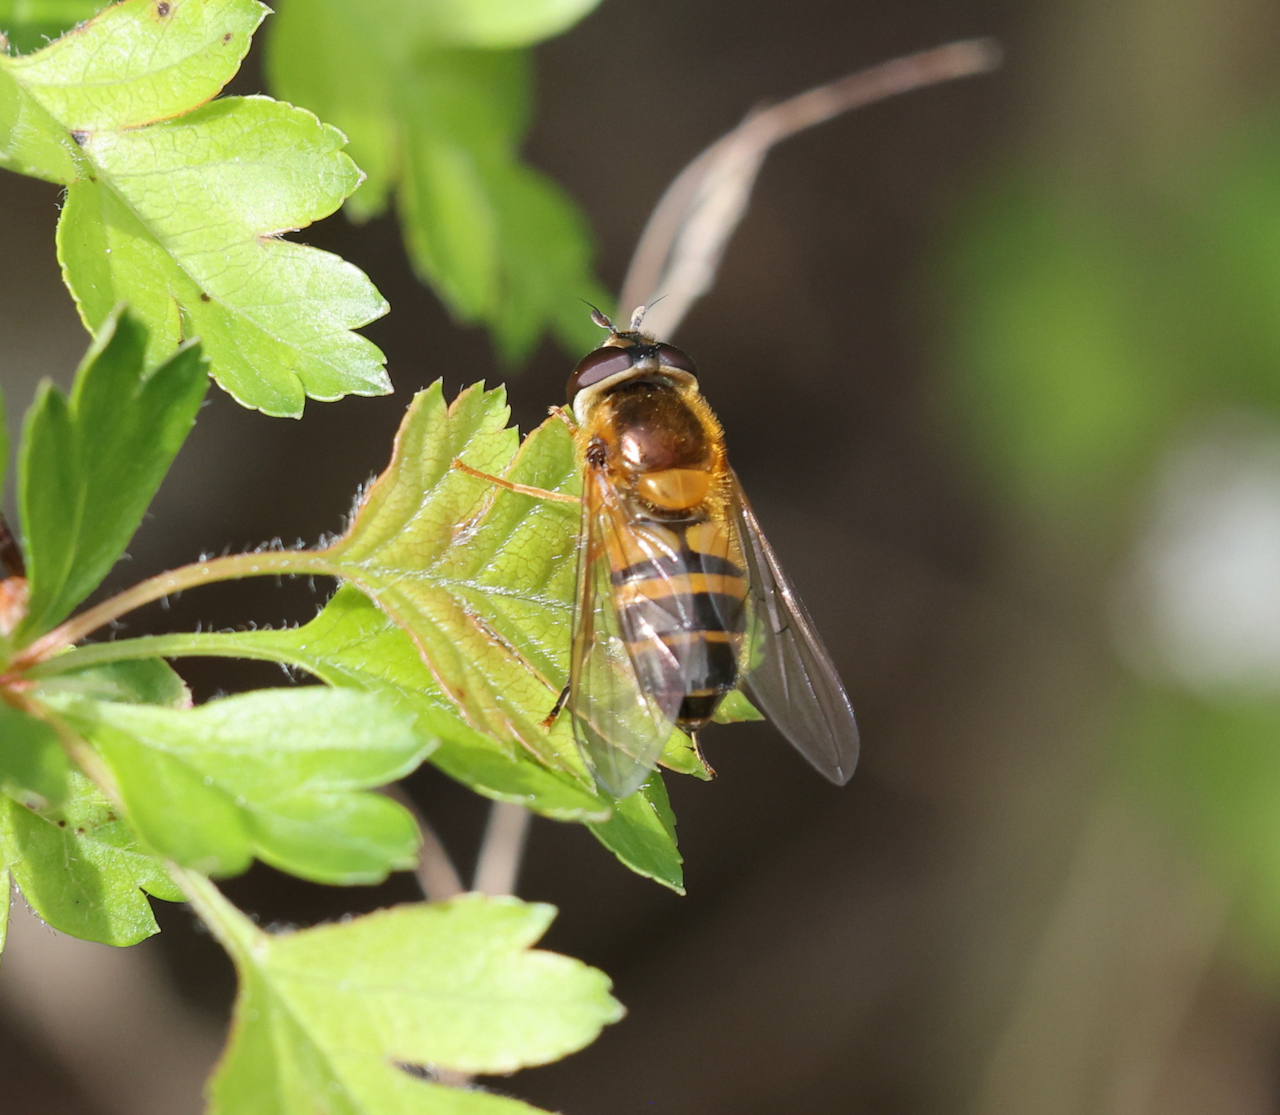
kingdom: Animalia
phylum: Arthropoda
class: Insecta
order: Diptera
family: Syrphidae
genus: Epistrophe
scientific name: Epistrophe eligans
